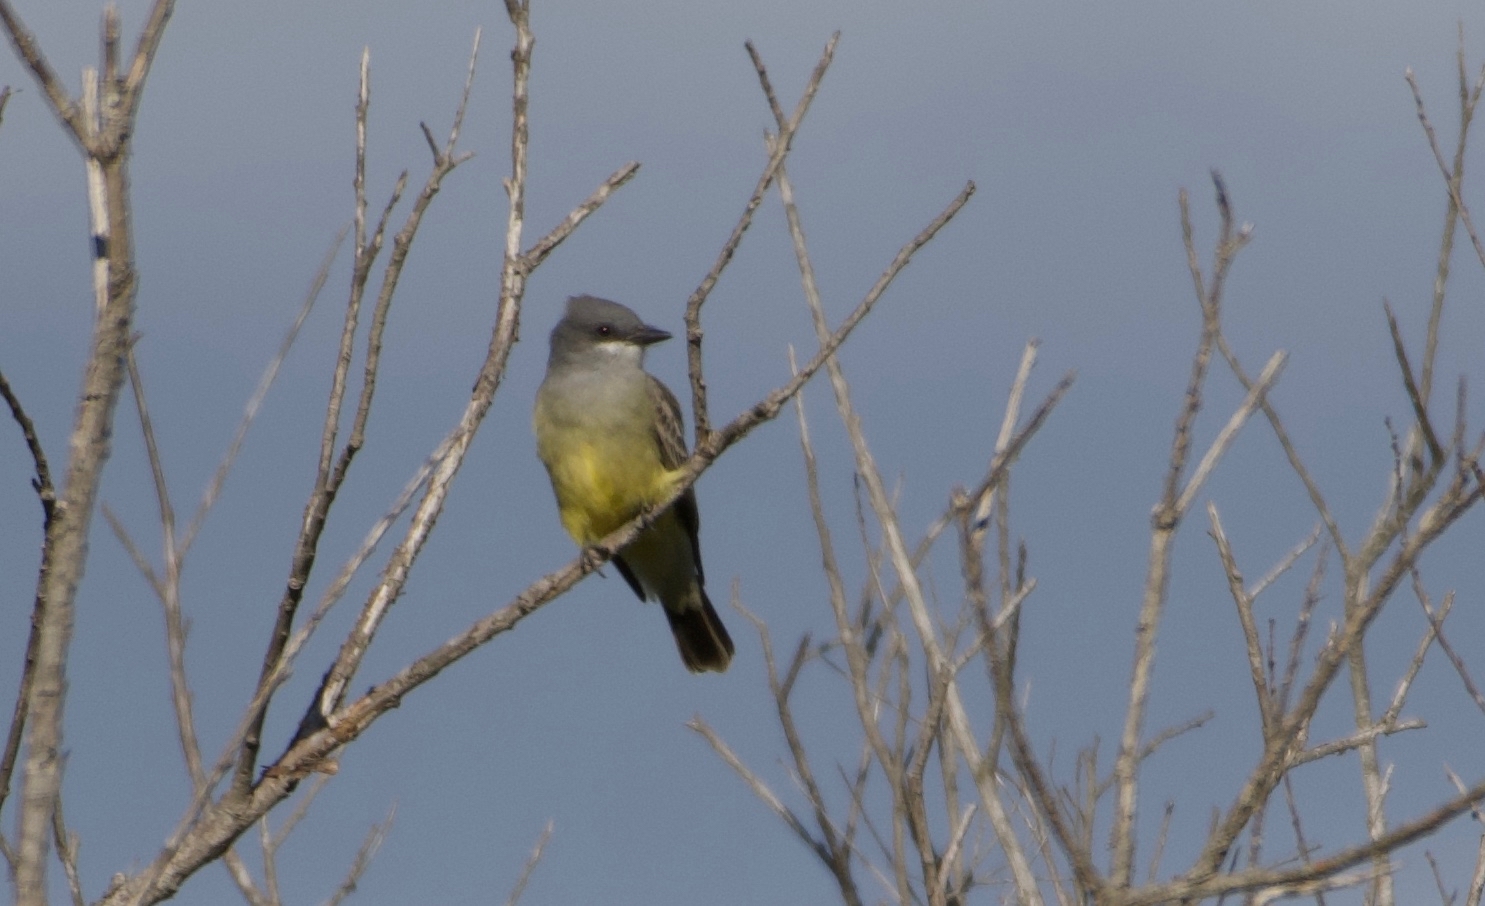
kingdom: Animalia
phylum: Chordata
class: Aves
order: Passeriformes
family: Tyrannidae
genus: Tyrannus
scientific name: Tyrannus vociferans
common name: Cassin's kingbird
